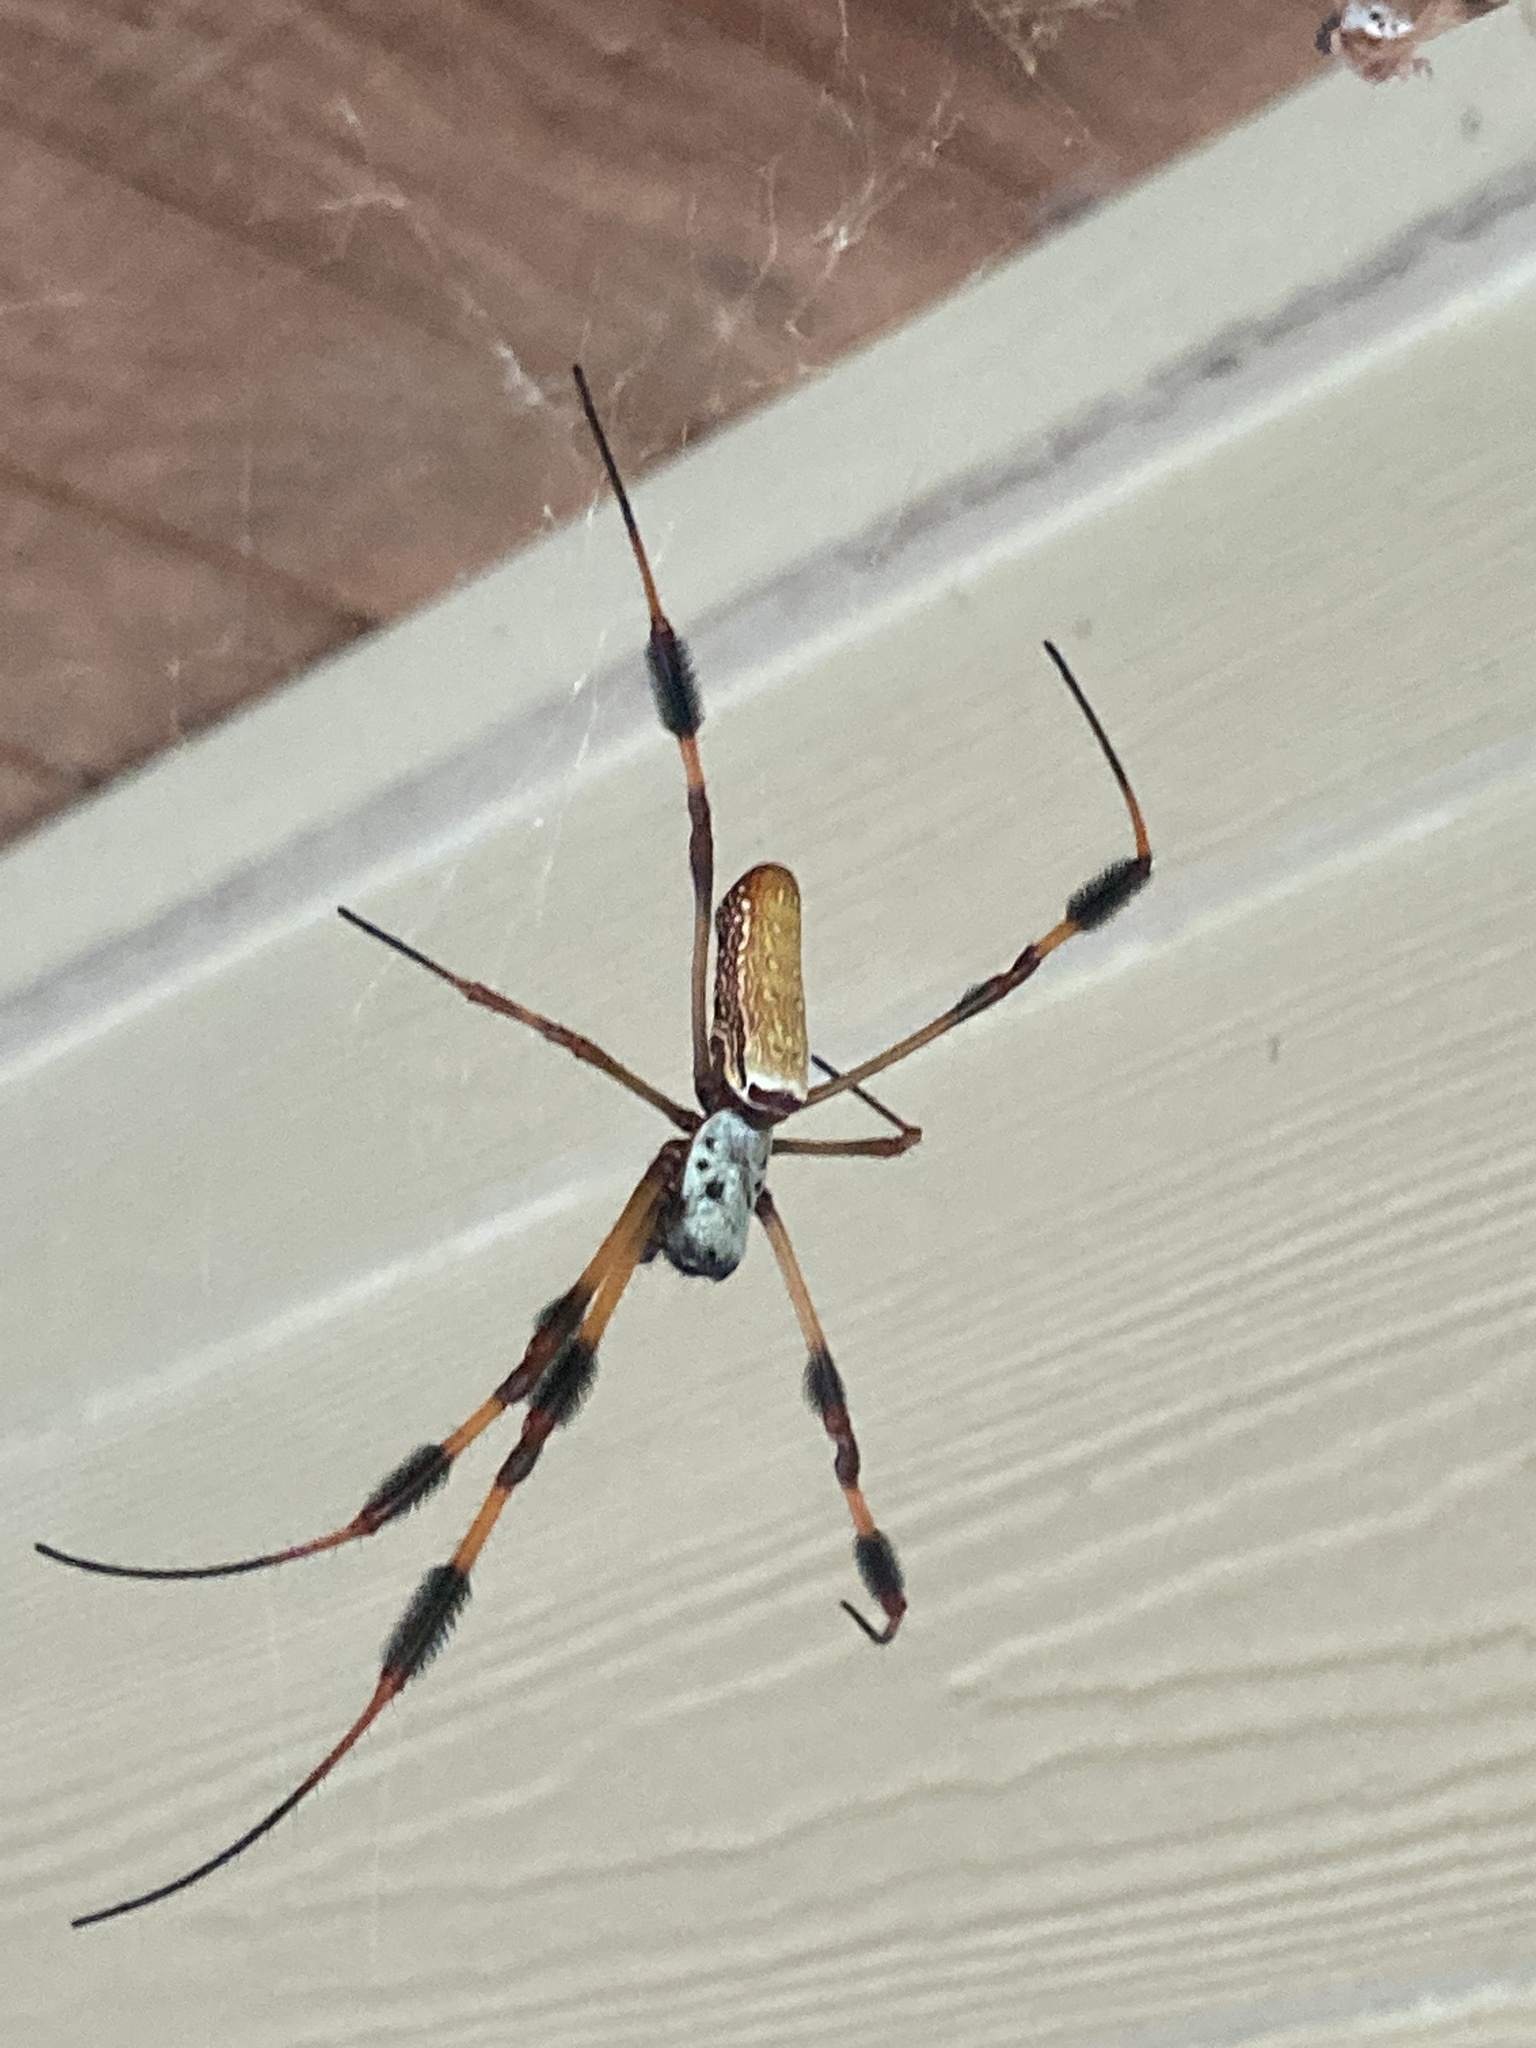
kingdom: Animalia
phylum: Arthropoda
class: Arachnida
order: Araneae
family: Araneidae
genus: Trichonephila
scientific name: Trichonephila clavipes
